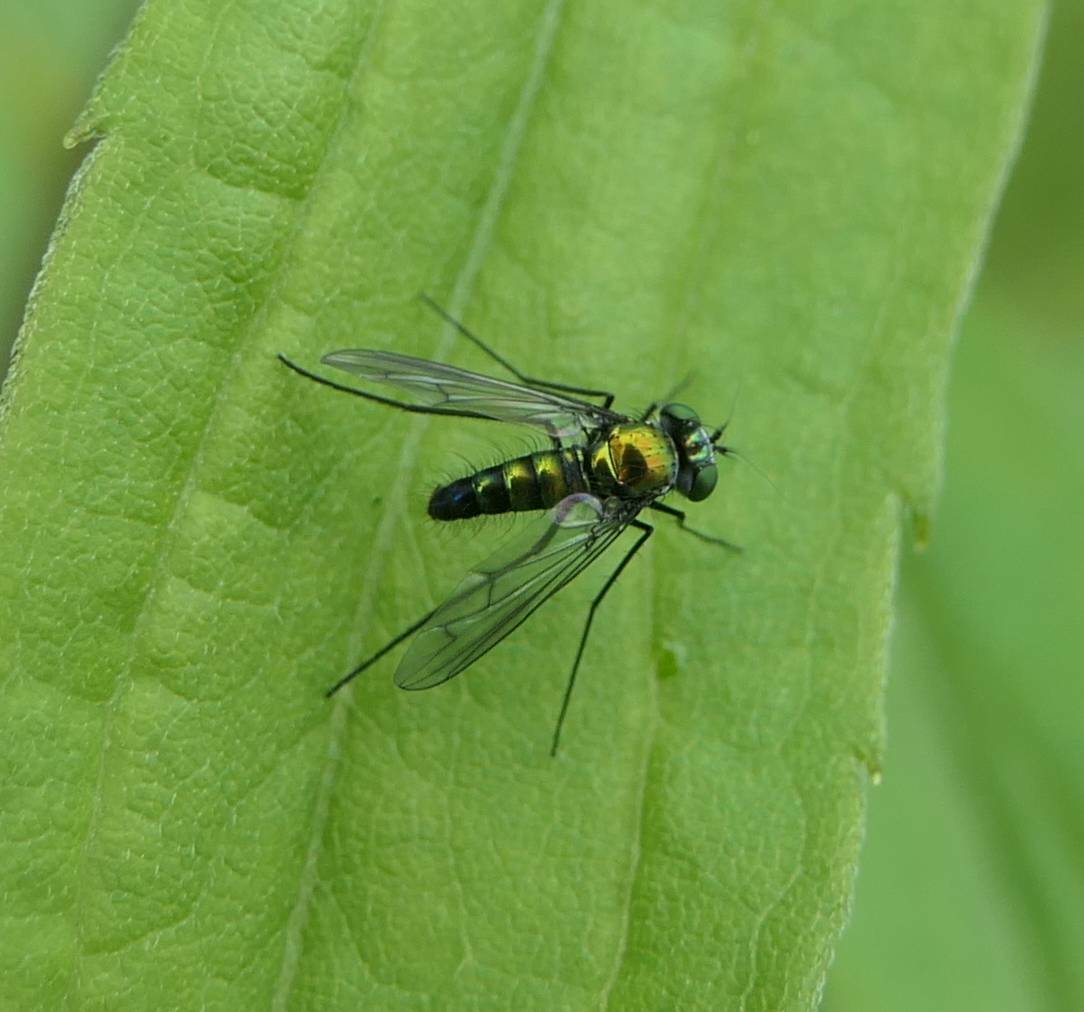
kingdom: Animalia
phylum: Arthropoda
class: Insecta
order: Diptera
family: Dolichopodidae
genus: Condylostylus
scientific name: Condylostylus patibulatus
